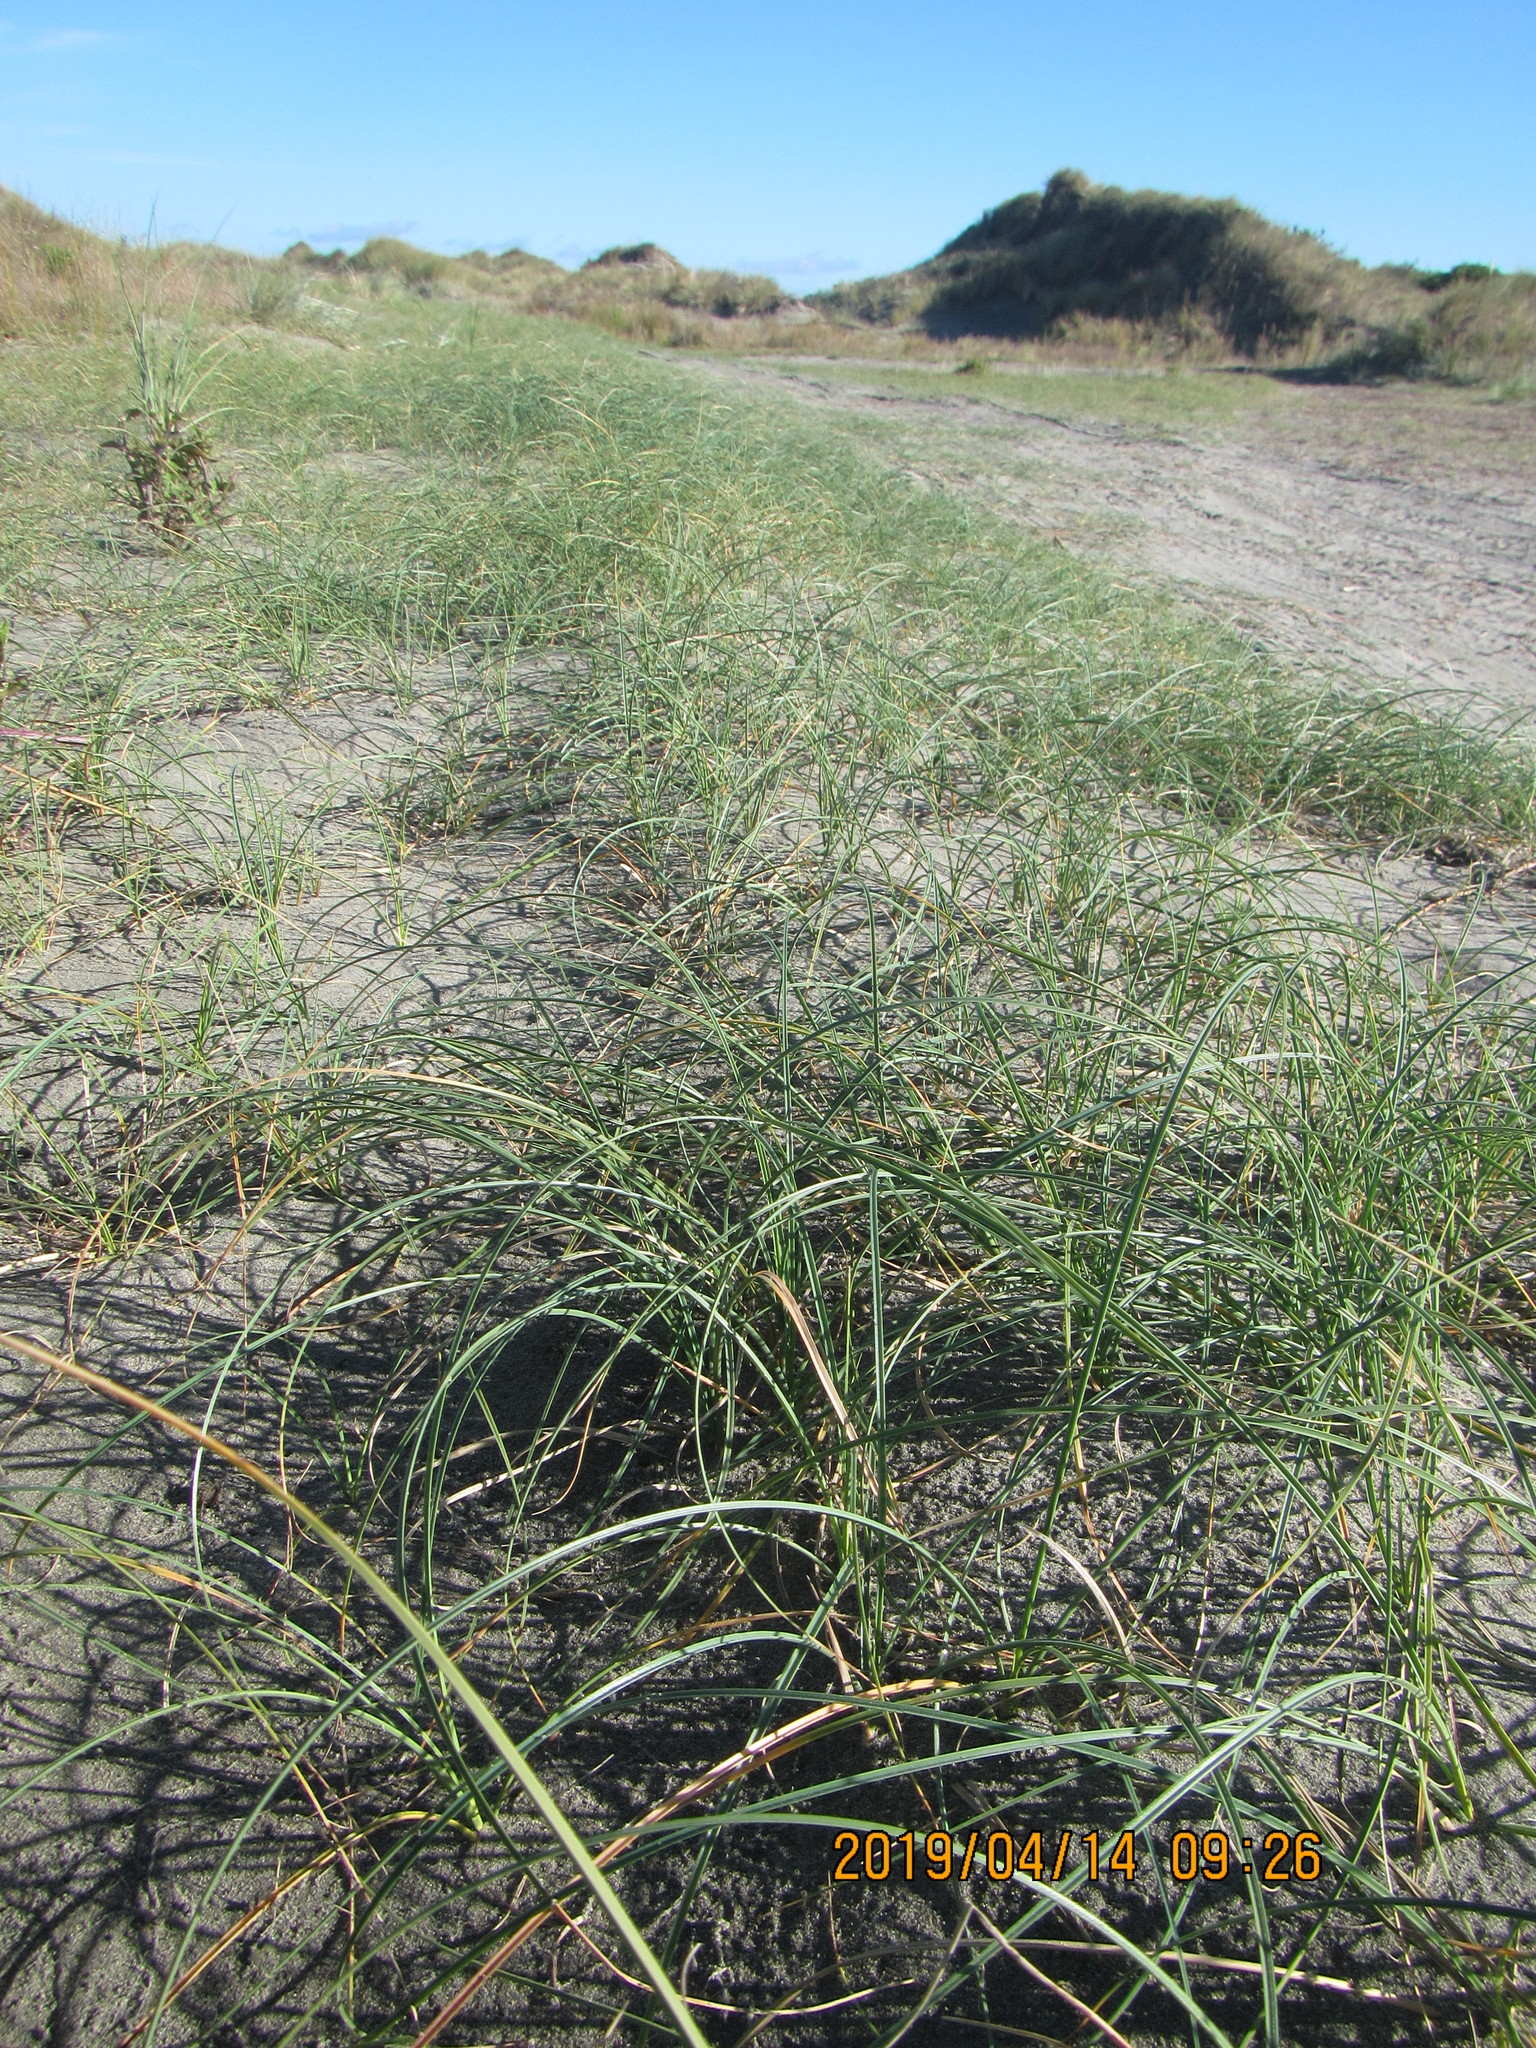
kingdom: Plantae
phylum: Tracheophyta
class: Liliopsida
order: Poales
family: Cyperaceae
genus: Carex
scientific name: Carex pumila
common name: Dwarf sedge
